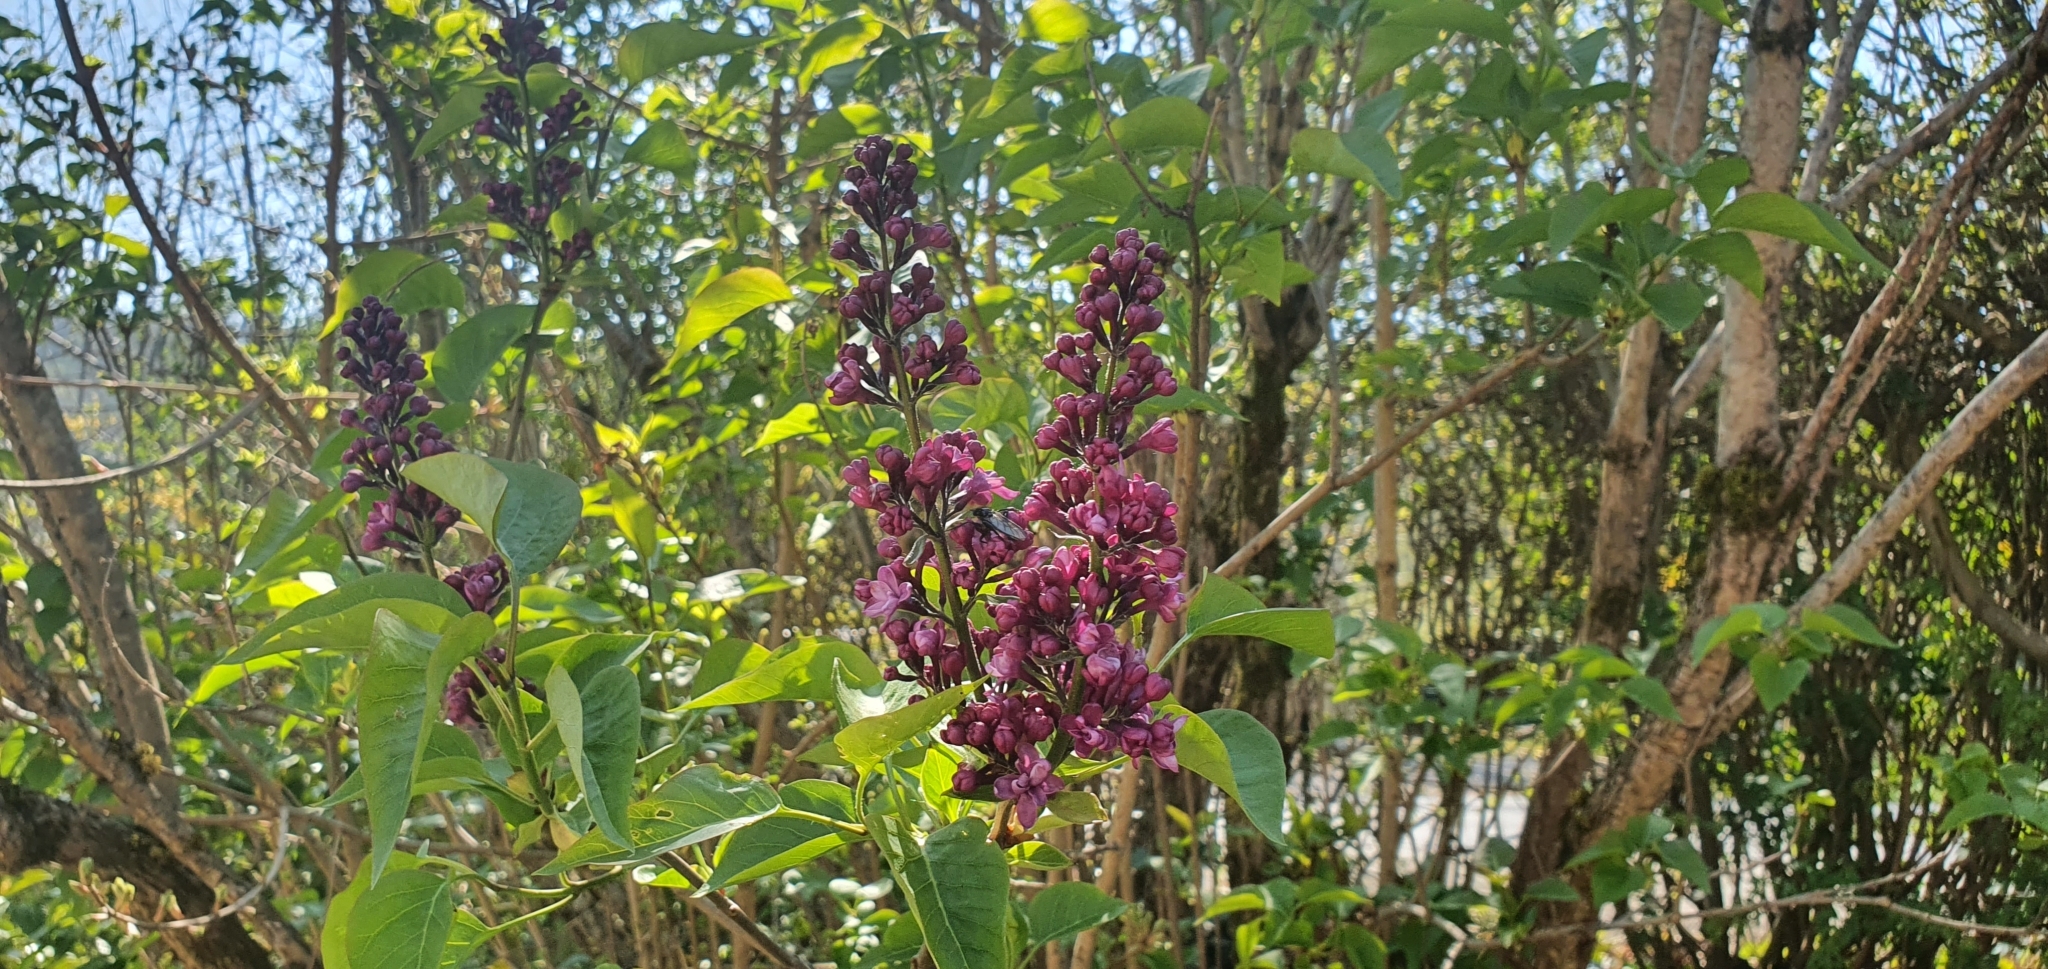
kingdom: Plantae
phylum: Tracheophyta
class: Magnoliopsida
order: Lamiales
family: Oleaceae
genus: Syringa
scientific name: Syringa vulgaris
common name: Common lilac
